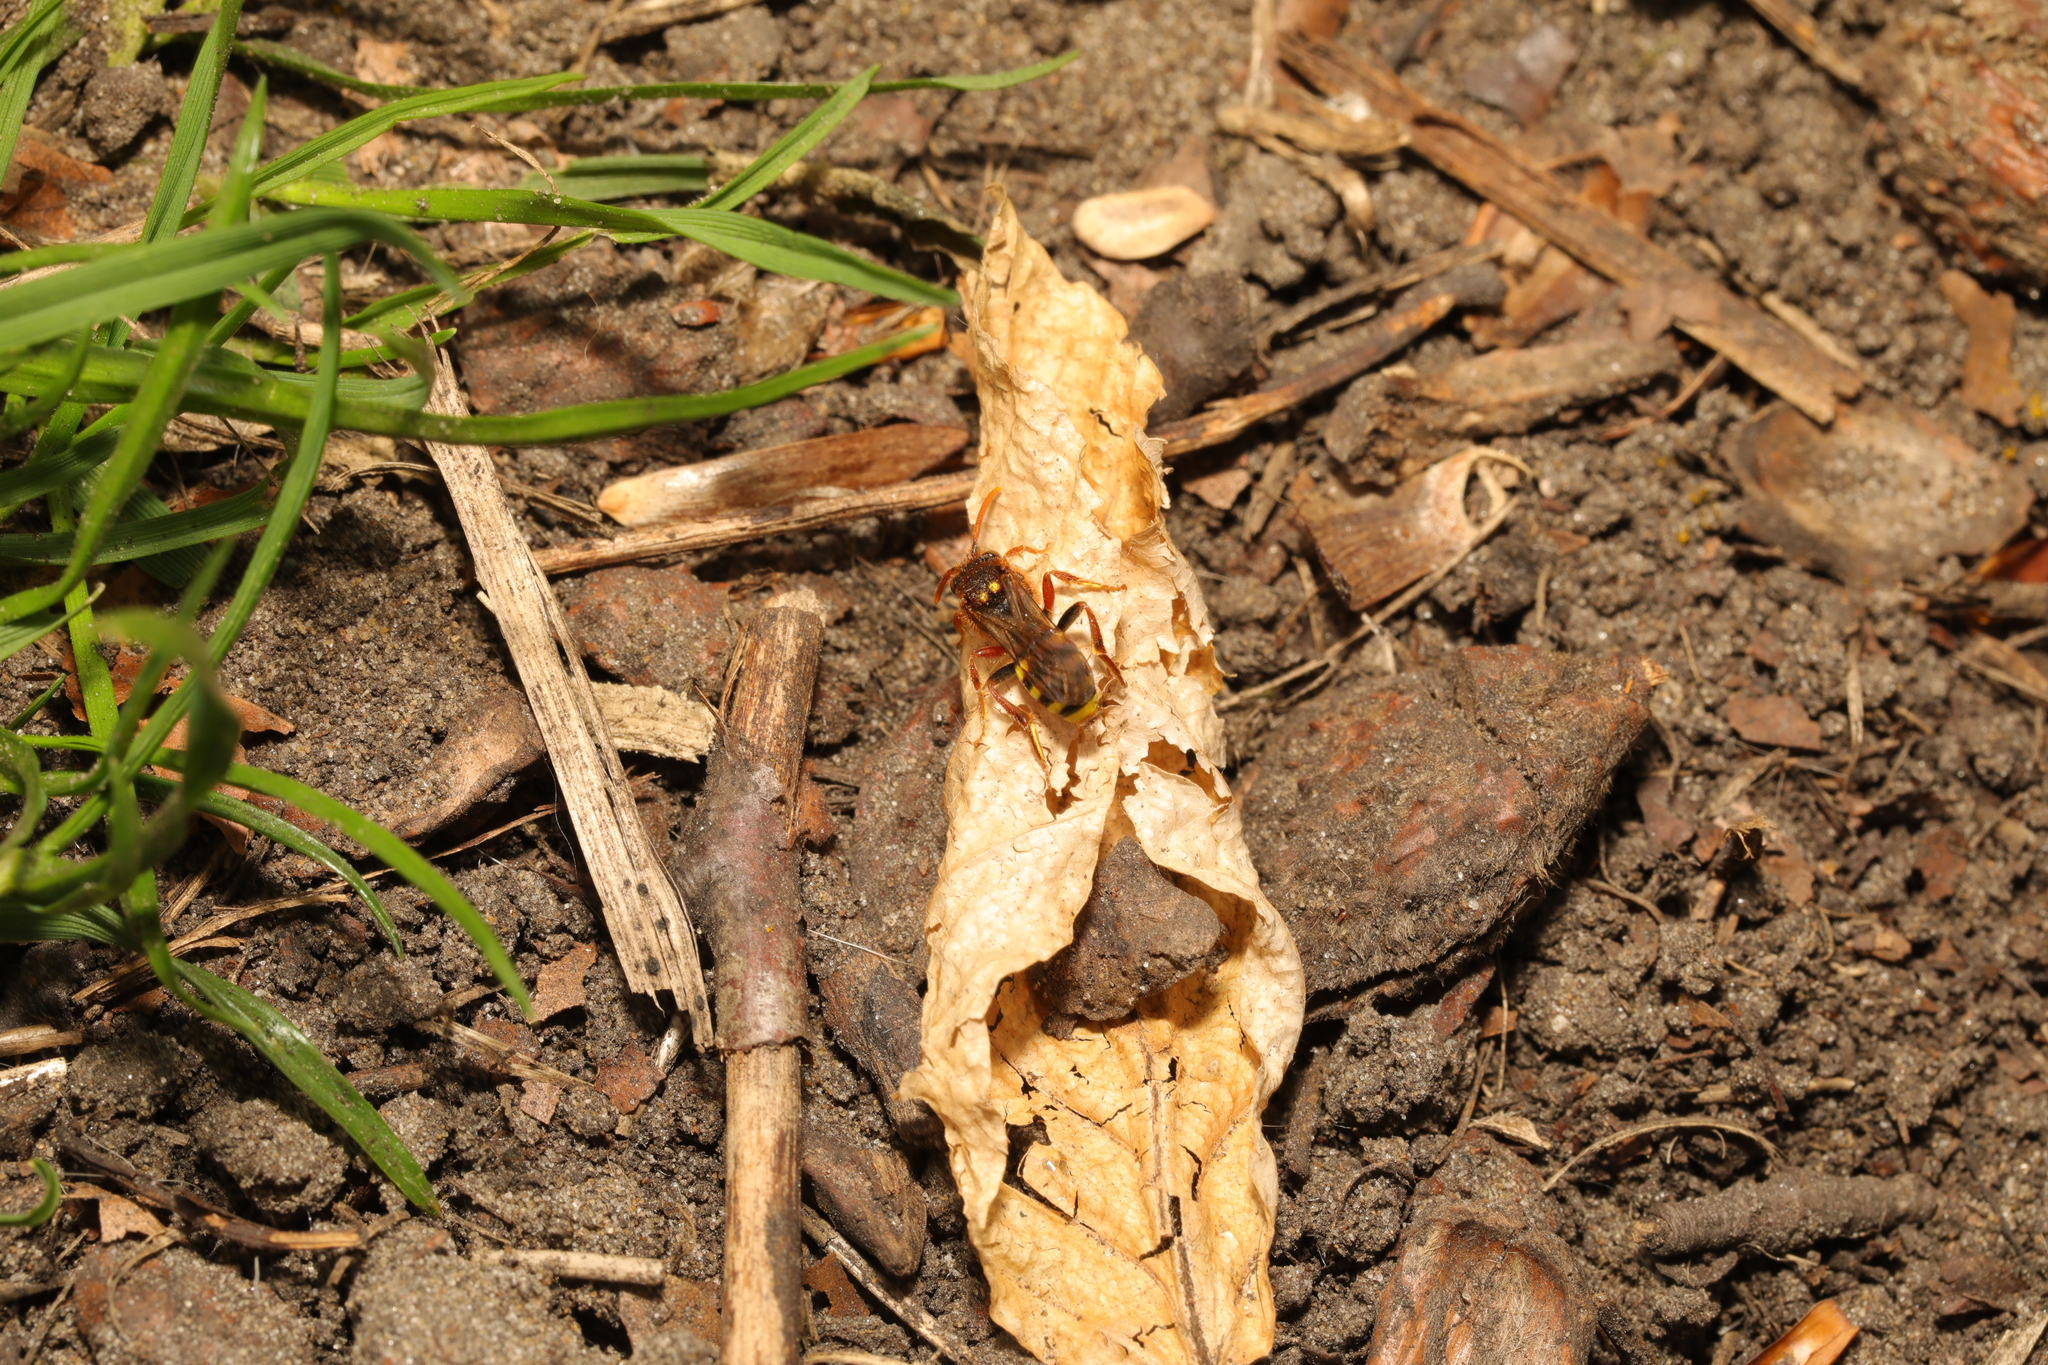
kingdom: Animalia
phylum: Arthropoda
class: Insecta
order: Hymenoptera
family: Apidae
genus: Nomada
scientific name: Nomada lathburiana
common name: Lathbury's nomad bee
